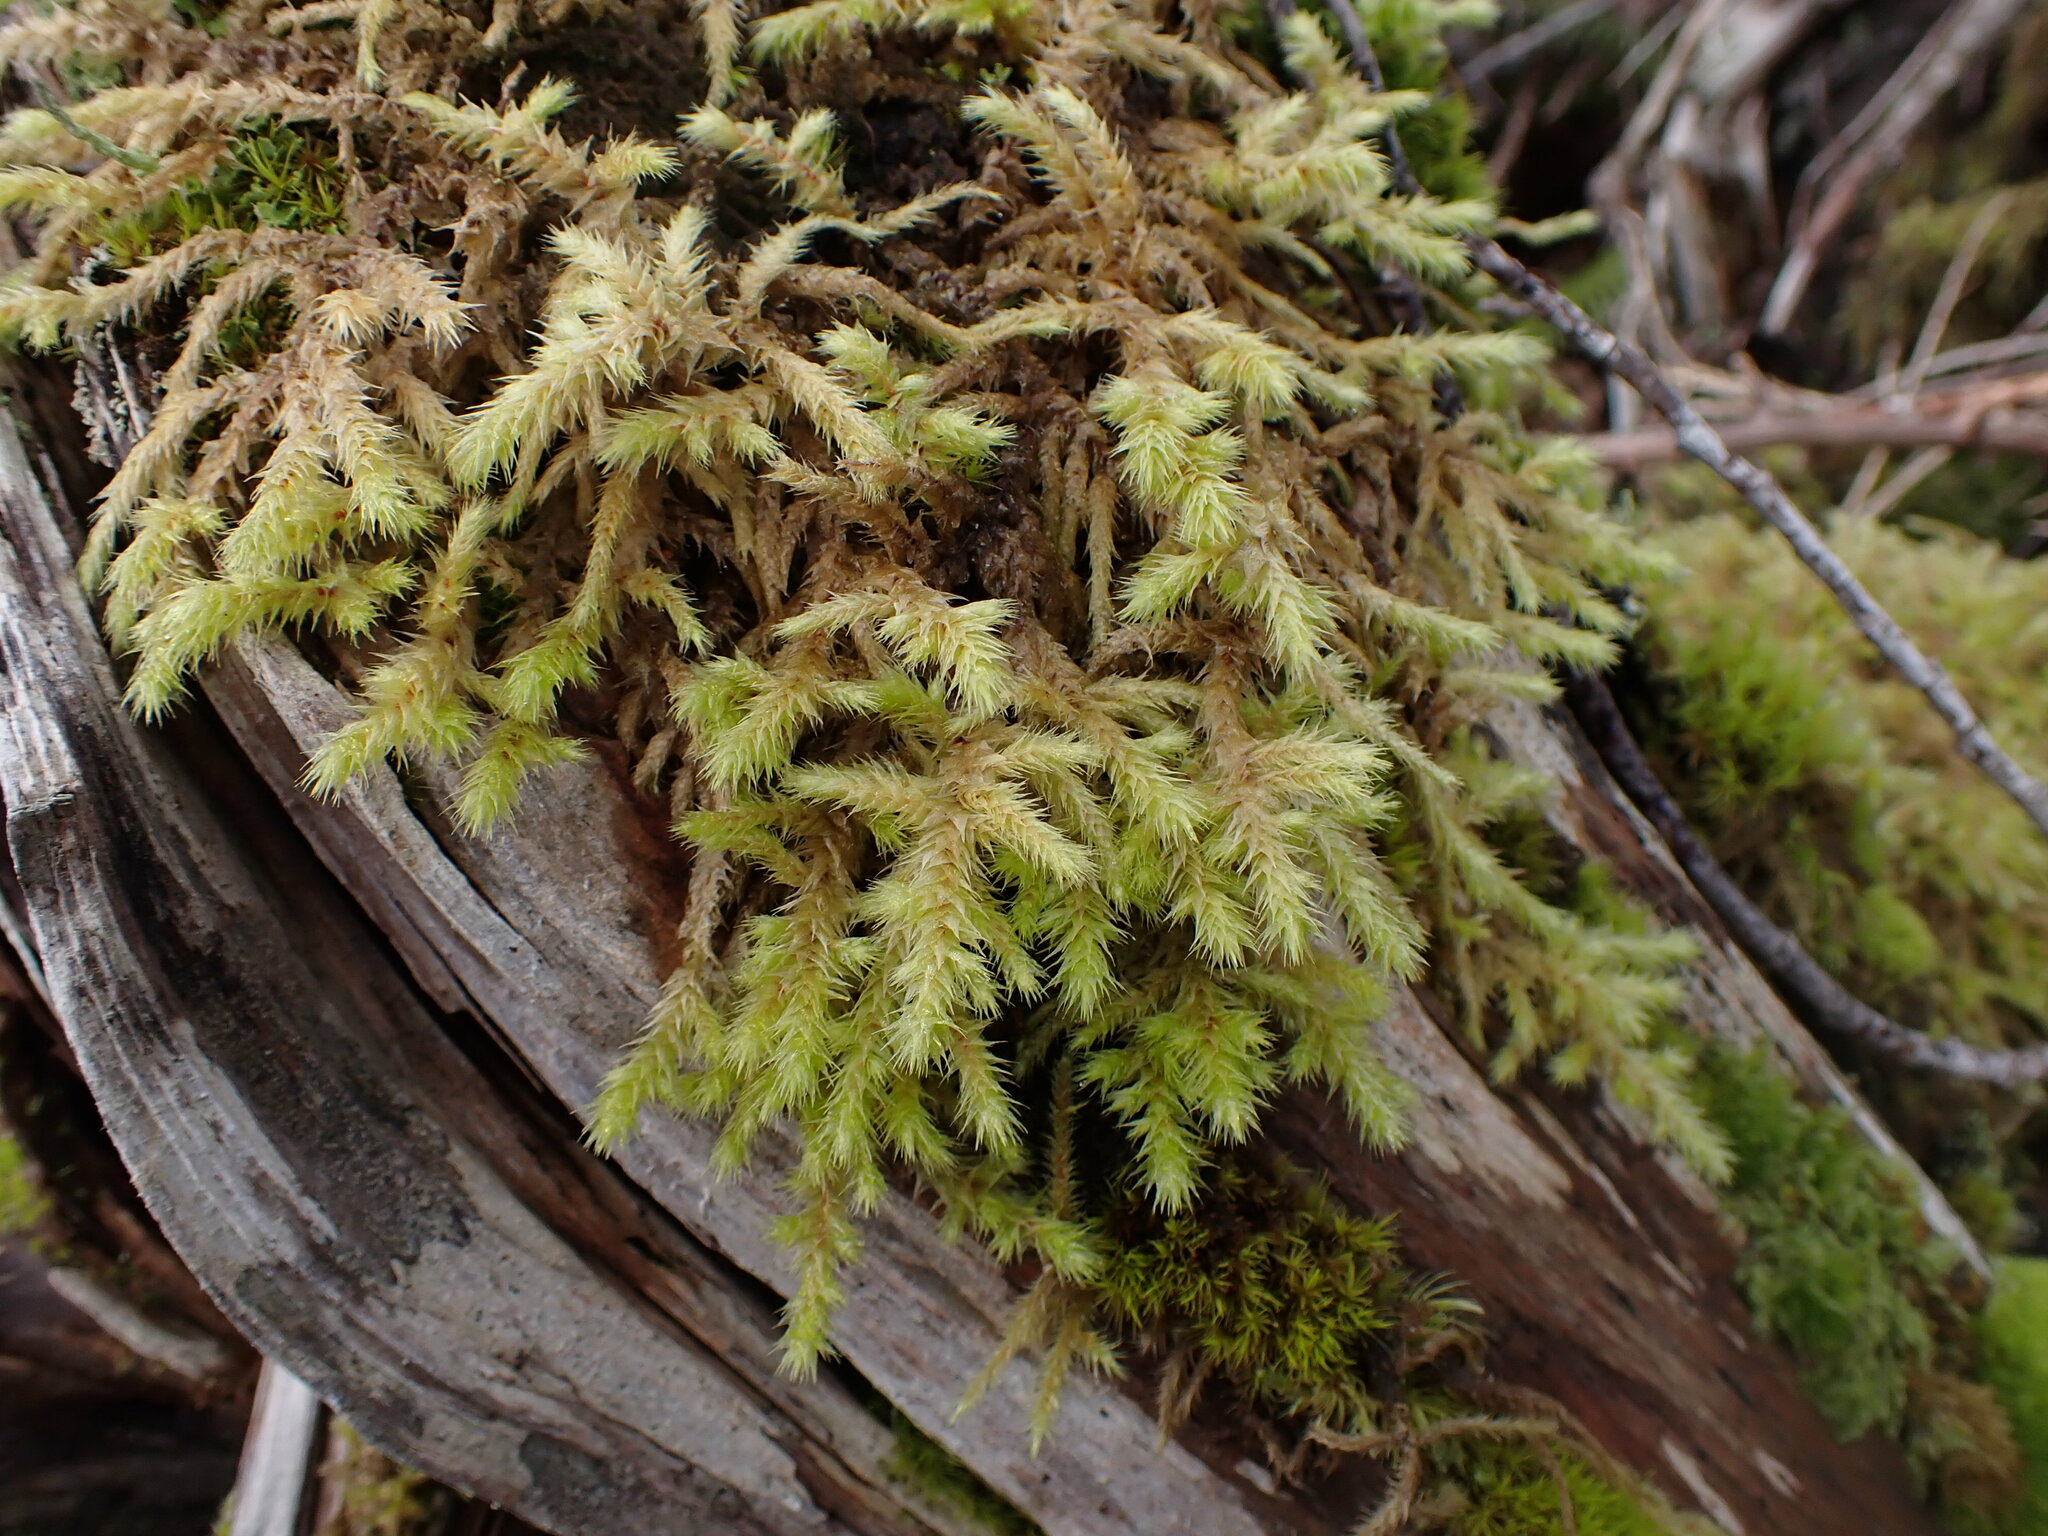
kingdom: Plantae
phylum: Bryophyta
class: Bryopsida
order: Hypnales
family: Hylocomiaceae
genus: Hylocomiadelphus
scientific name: Hylocomiadelphus triquetrus
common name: Rough goose neck moss
